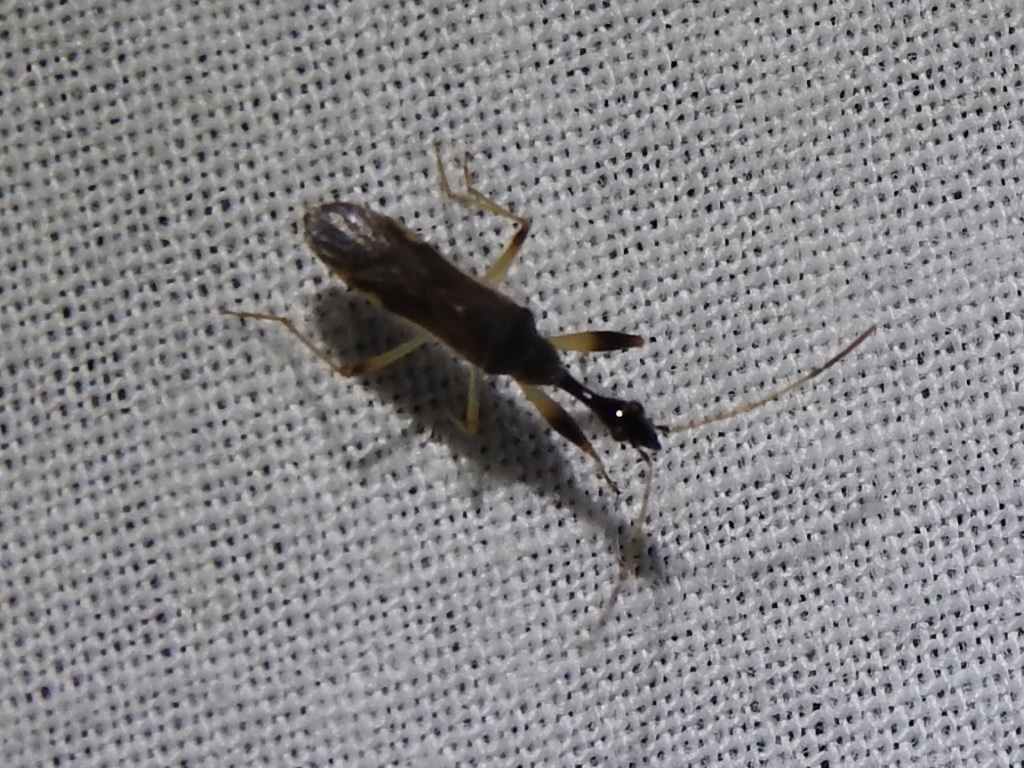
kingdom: Animalia
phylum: Arthropoda
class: Insecta
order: Hemiptera
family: Rhyparochromidae
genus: Myodocha
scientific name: Myodocha serripes
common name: Long-necked seed bug
